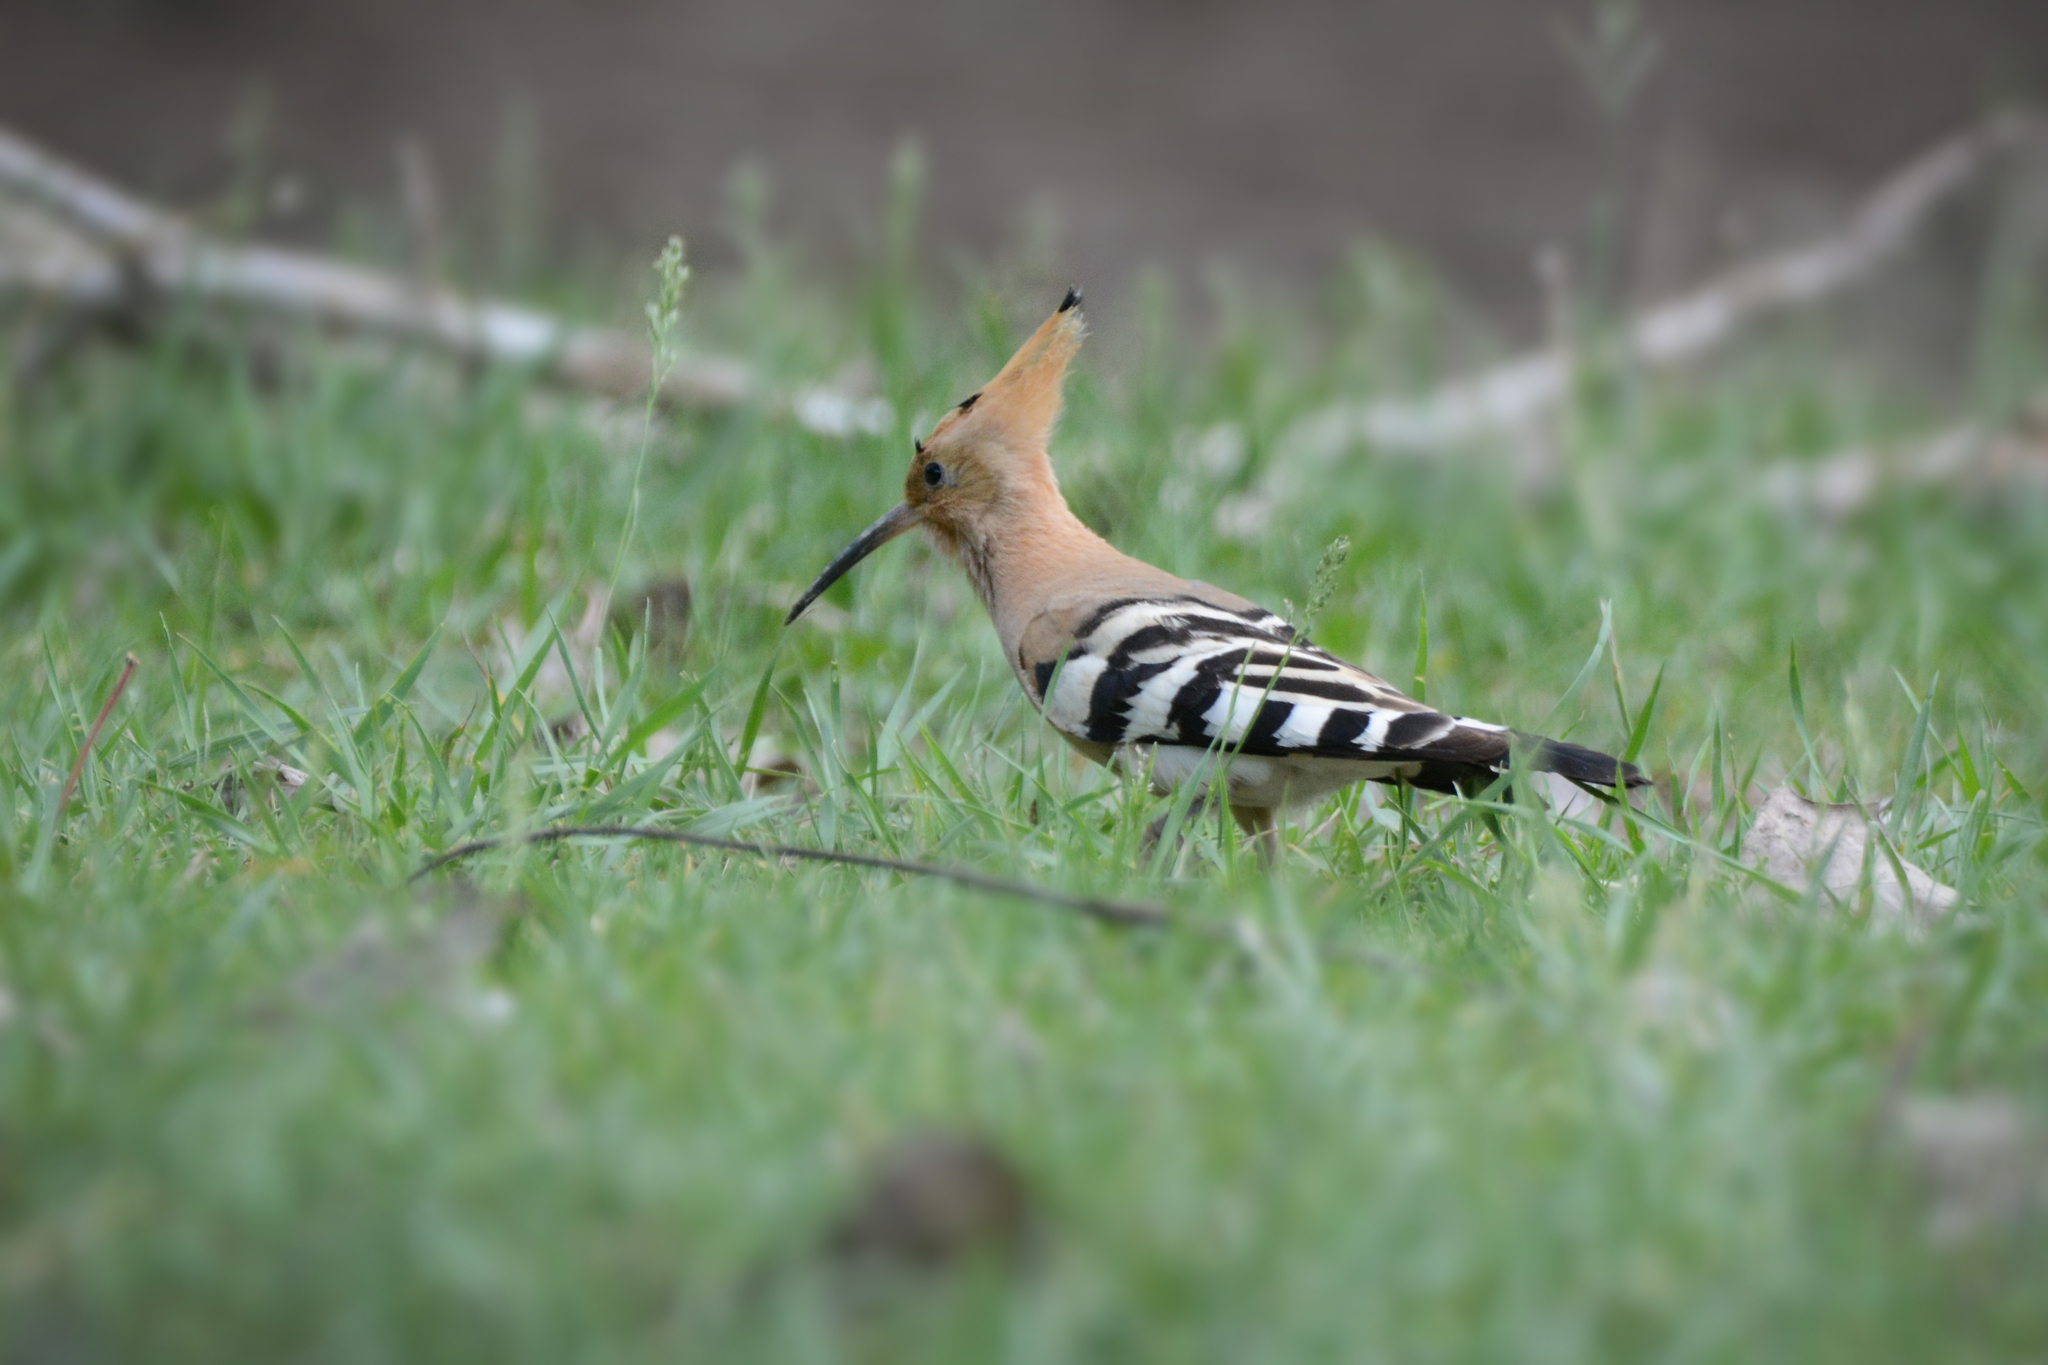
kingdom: Animalia
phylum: Chordata
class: Aves
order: Bucerotiformes
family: Upupidae
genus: Upupa
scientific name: Upupa epops
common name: Eurasian hoopoe
